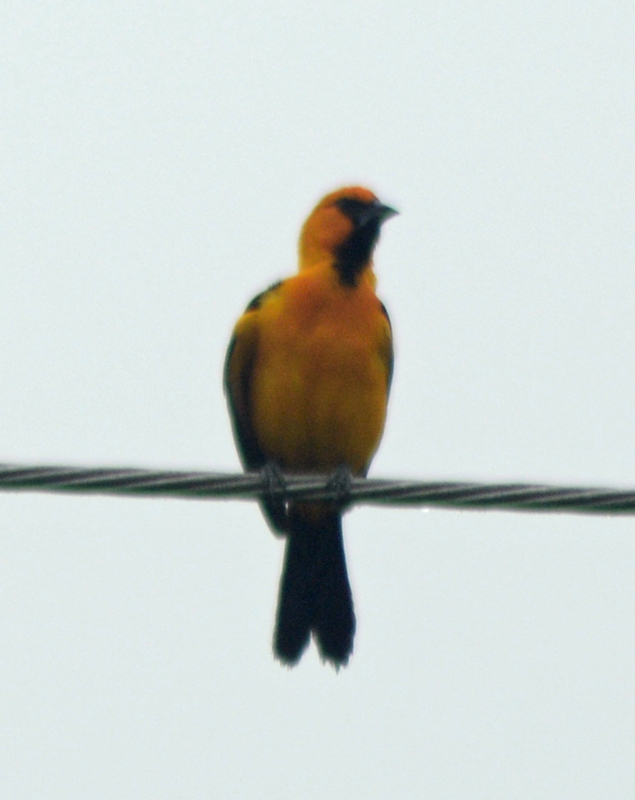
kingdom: Animalia
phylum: Chordata
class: Aves
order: Passeriformes
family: Icteridae
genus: Icterus
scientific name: Icterus gularis
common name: Altamira oriole
